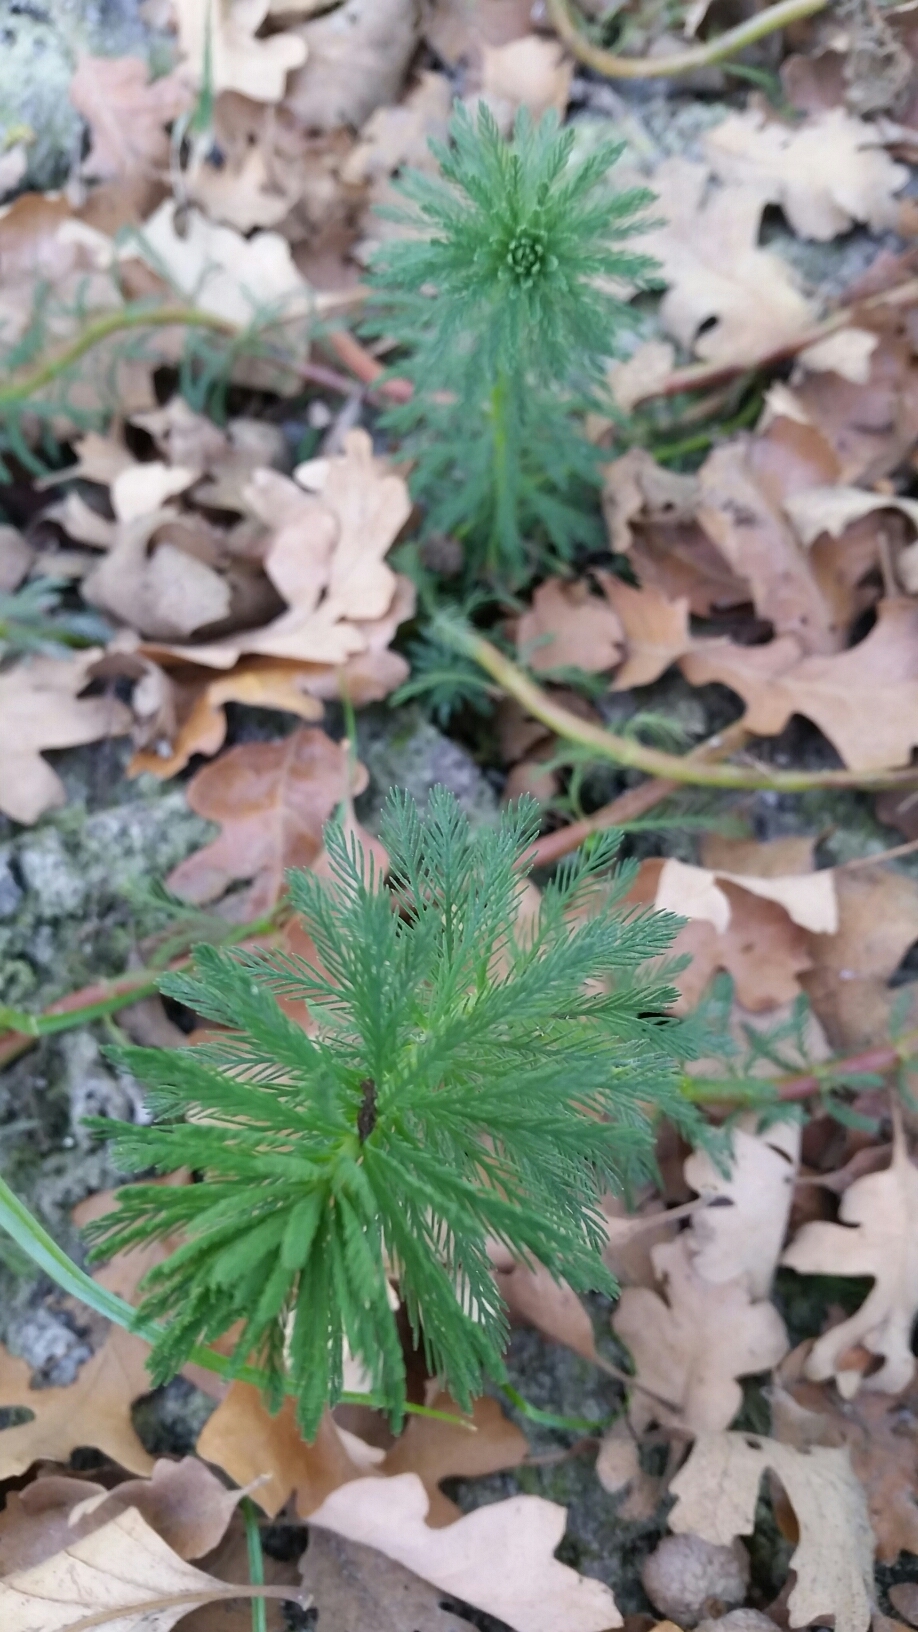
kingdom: Plantae
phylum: Tracheophyta
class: Magnoliopsida
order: Saxifragales
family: Haloragaceae
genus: Myriophyllum
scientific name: Myriophyllum aquaticum
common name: Parrot's feather
